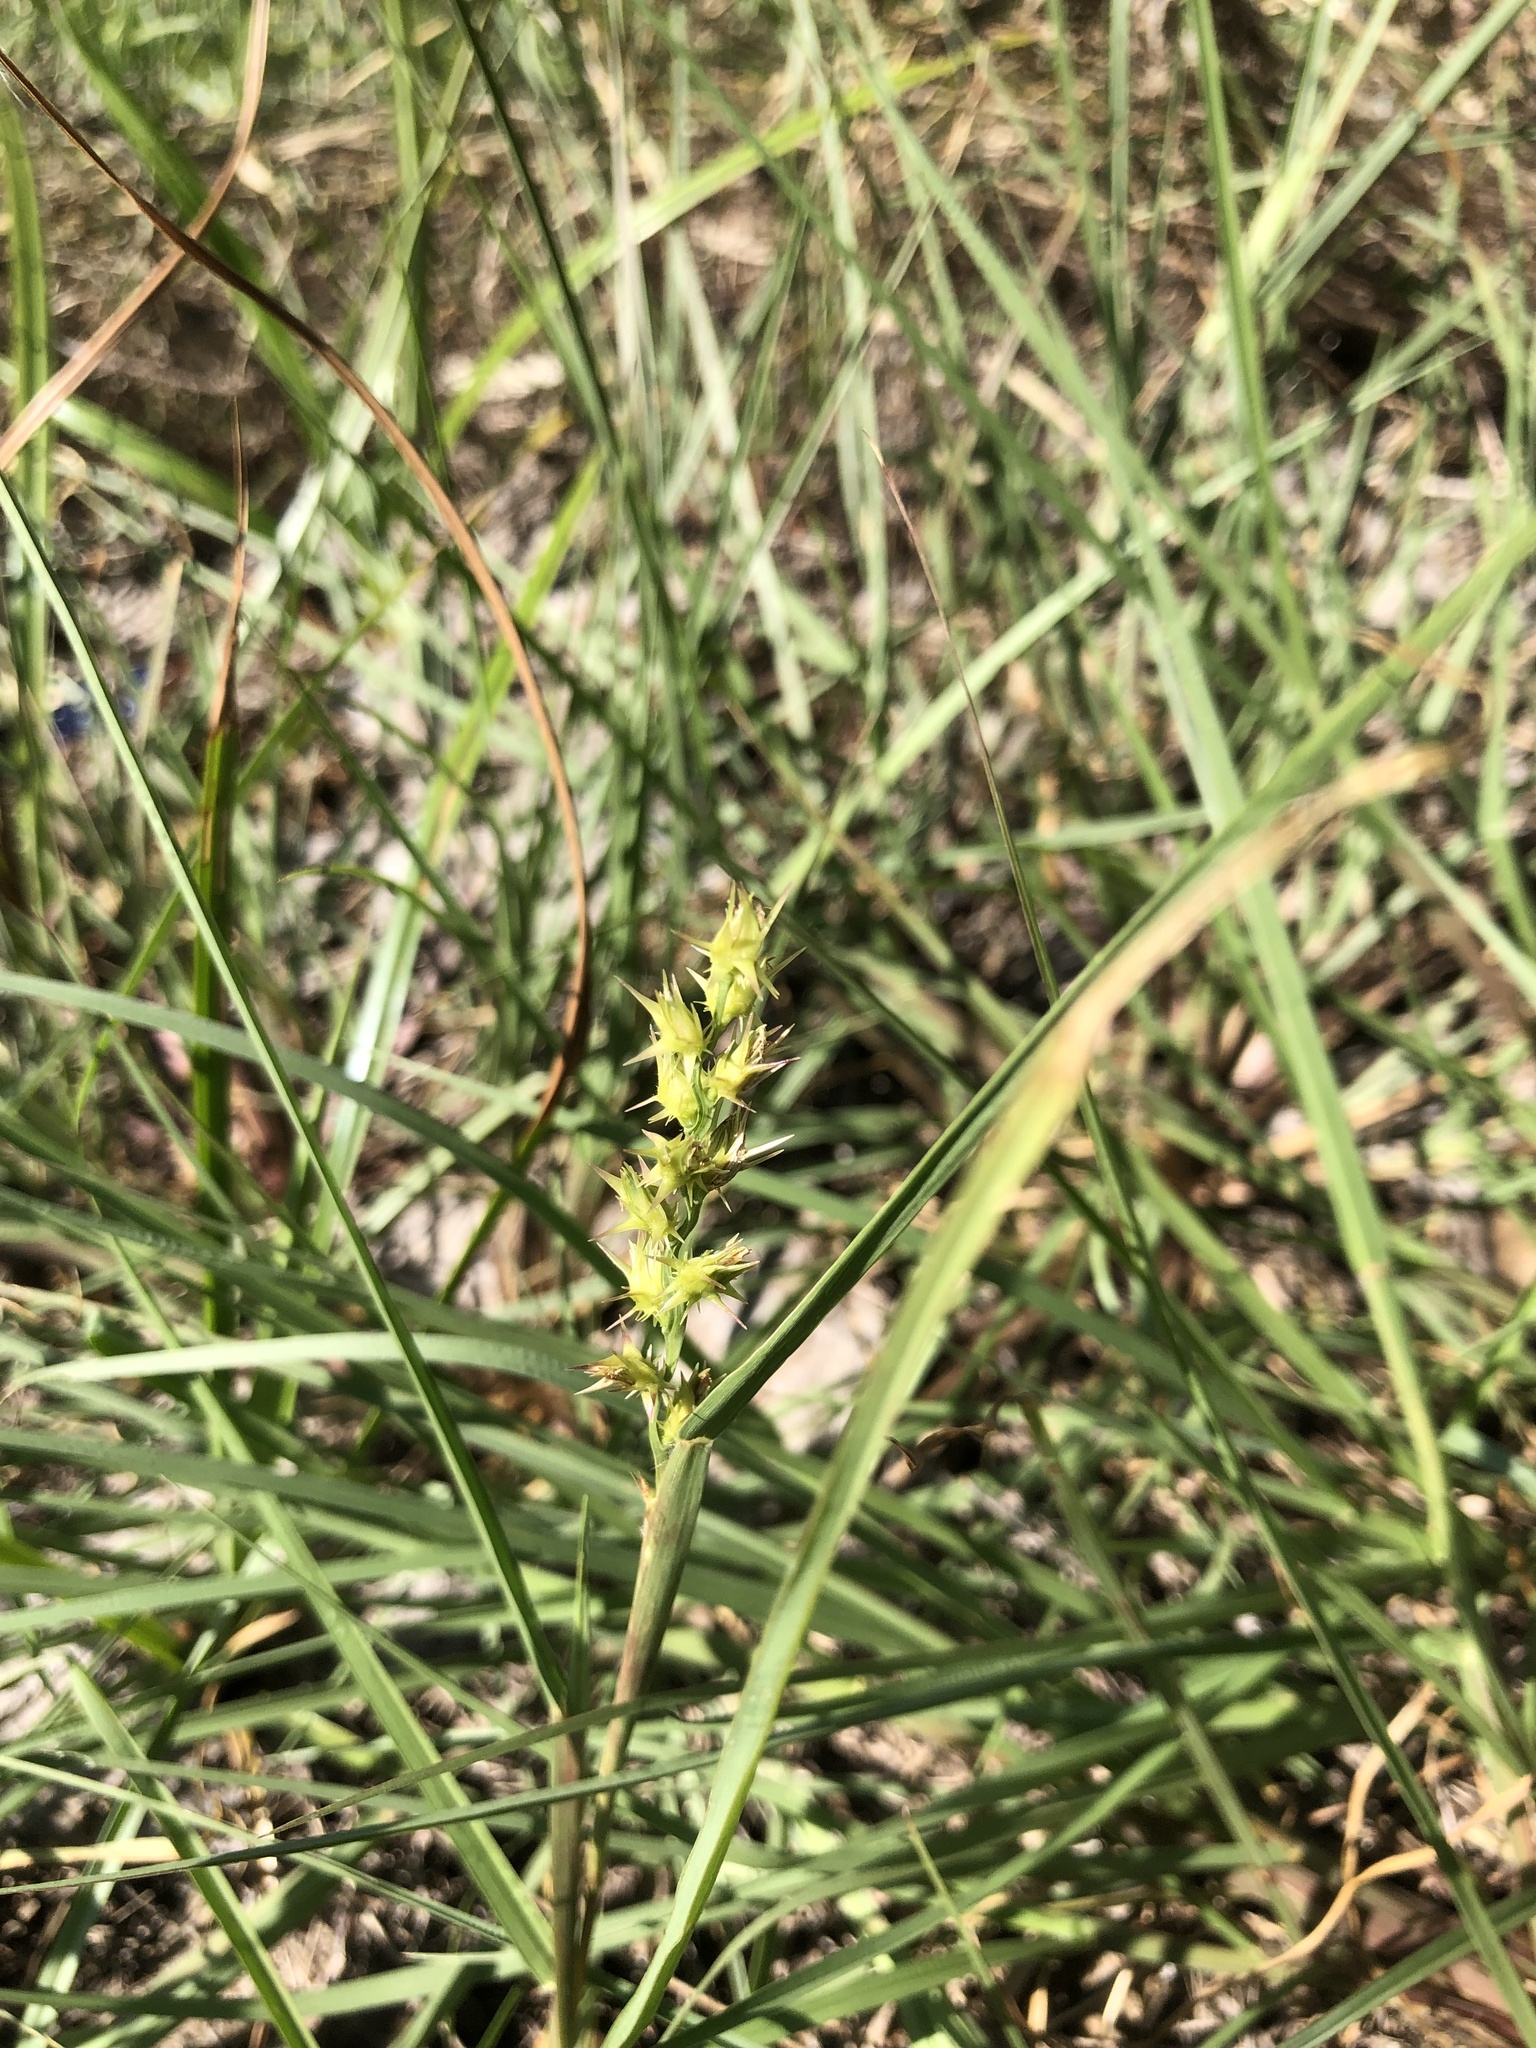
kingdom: Plantae
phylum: Tracheophyta
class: Liliopsida
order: Poales
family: Poaceae
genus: Cenchrus
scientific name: Cenchrus spinifex
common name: Coast sandbur
